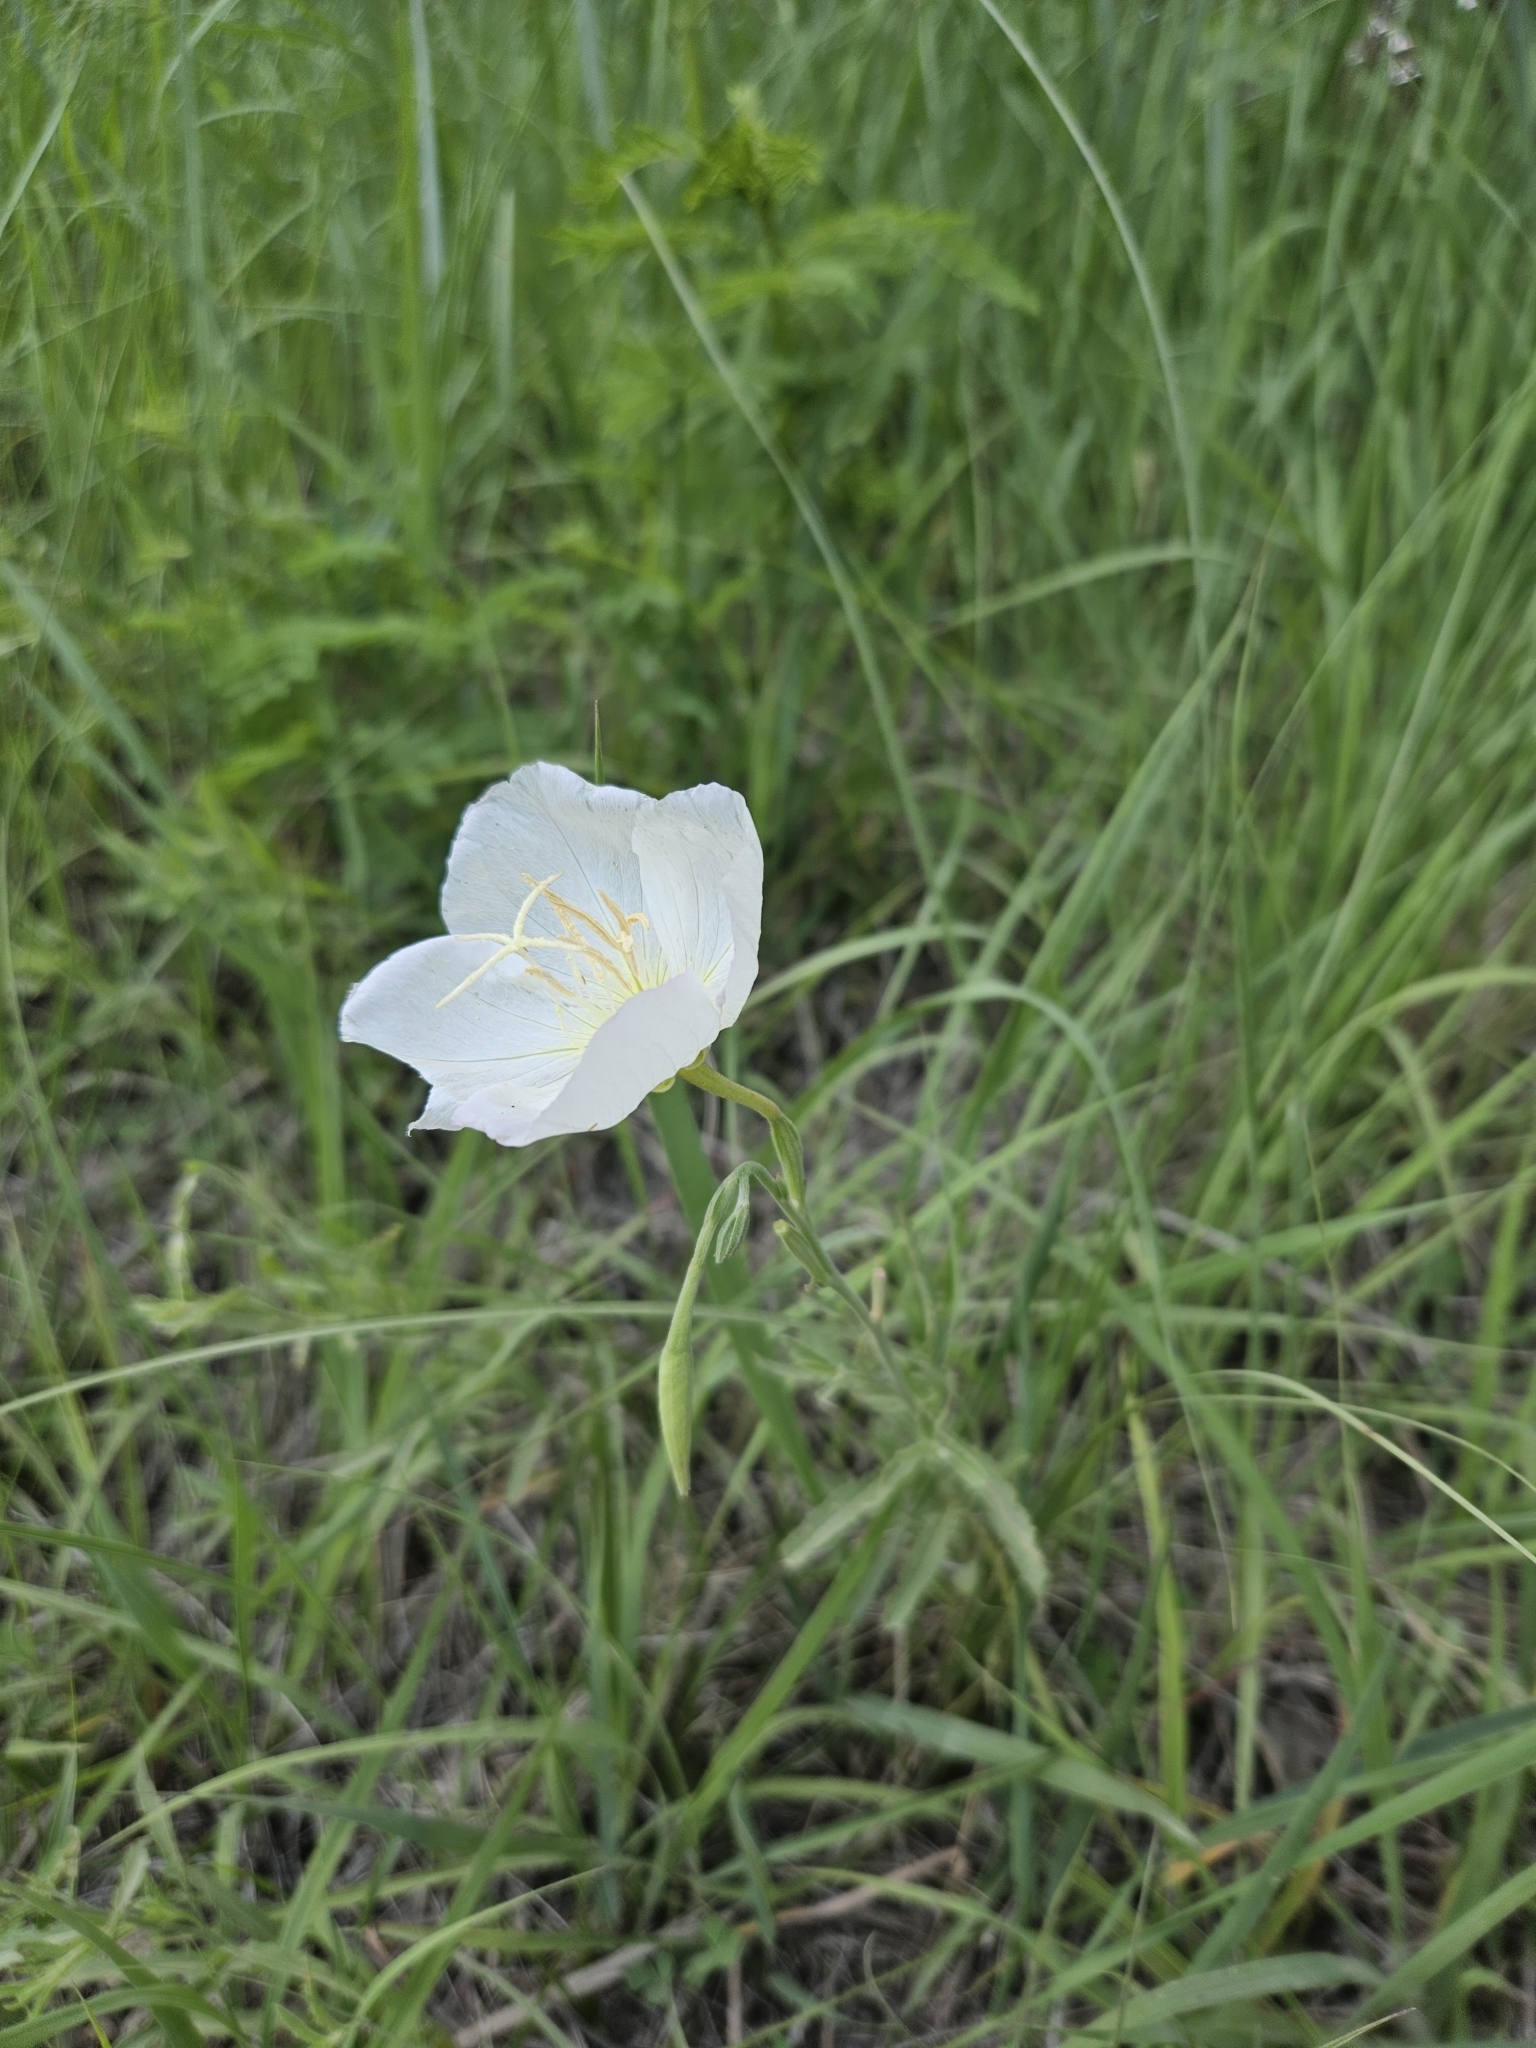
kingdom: Plantae
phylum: Tracheophyta
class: Magnoliopsida
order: Malvales
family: Malvaceae
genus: Callirhoe
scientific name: Callirhoe alcaeoides
